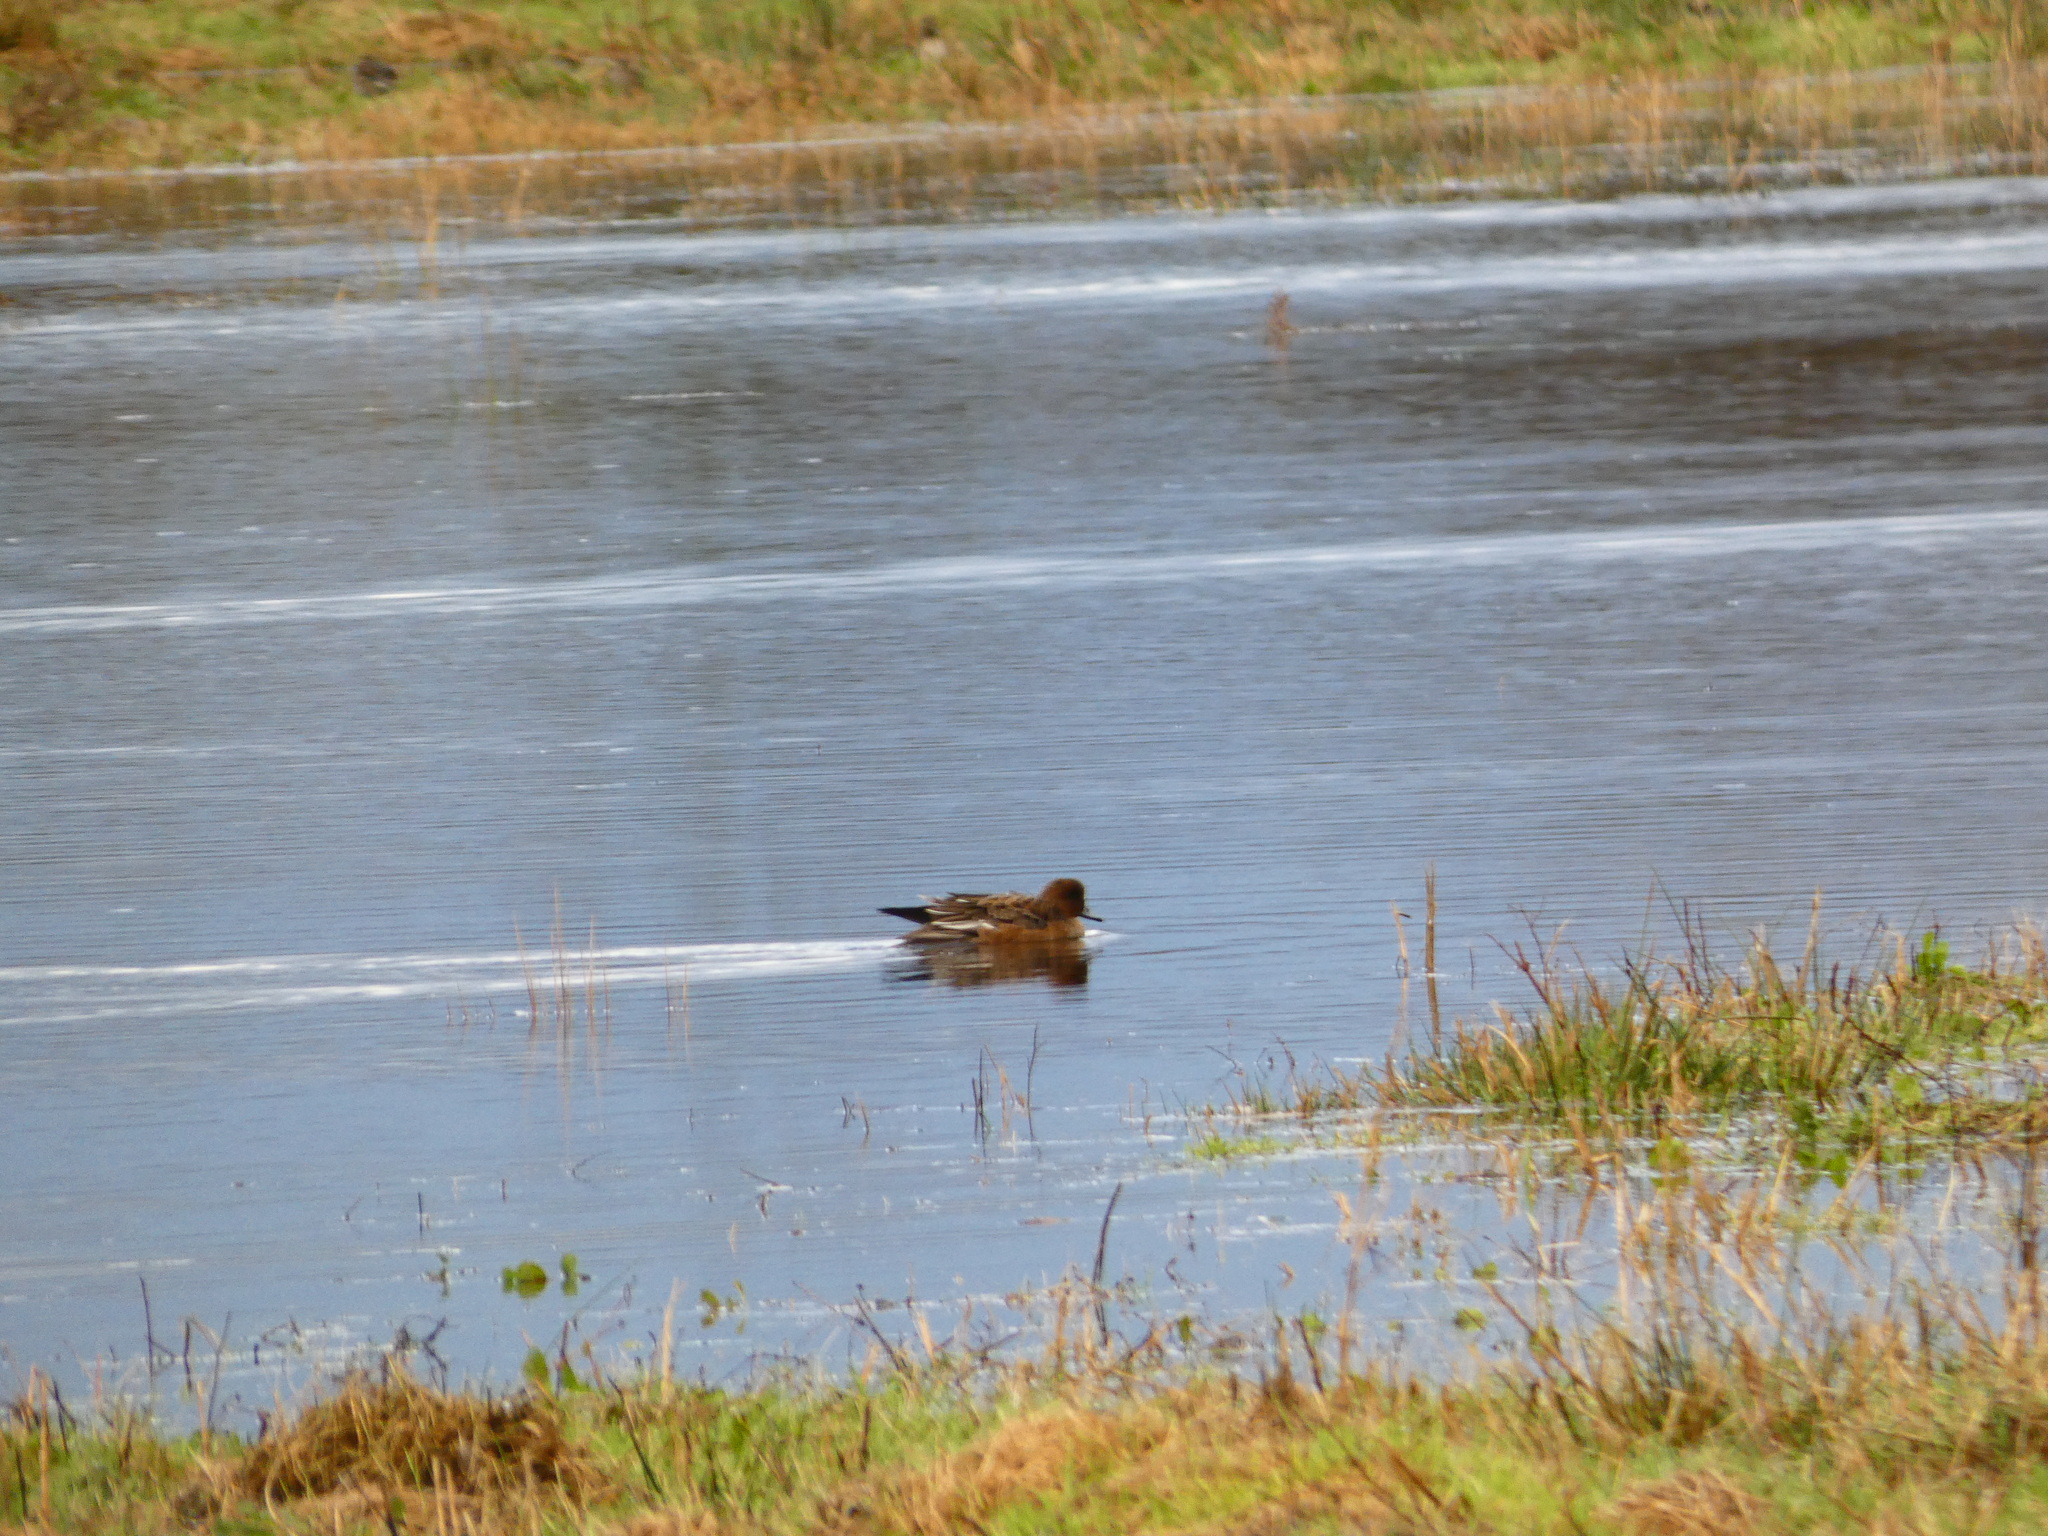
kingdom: Animalia
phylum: Chordata
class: Aves
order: Anseriformes
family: Anatidae
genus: Mareca
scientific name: Mareca penelope
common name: Eurasian wigeon
